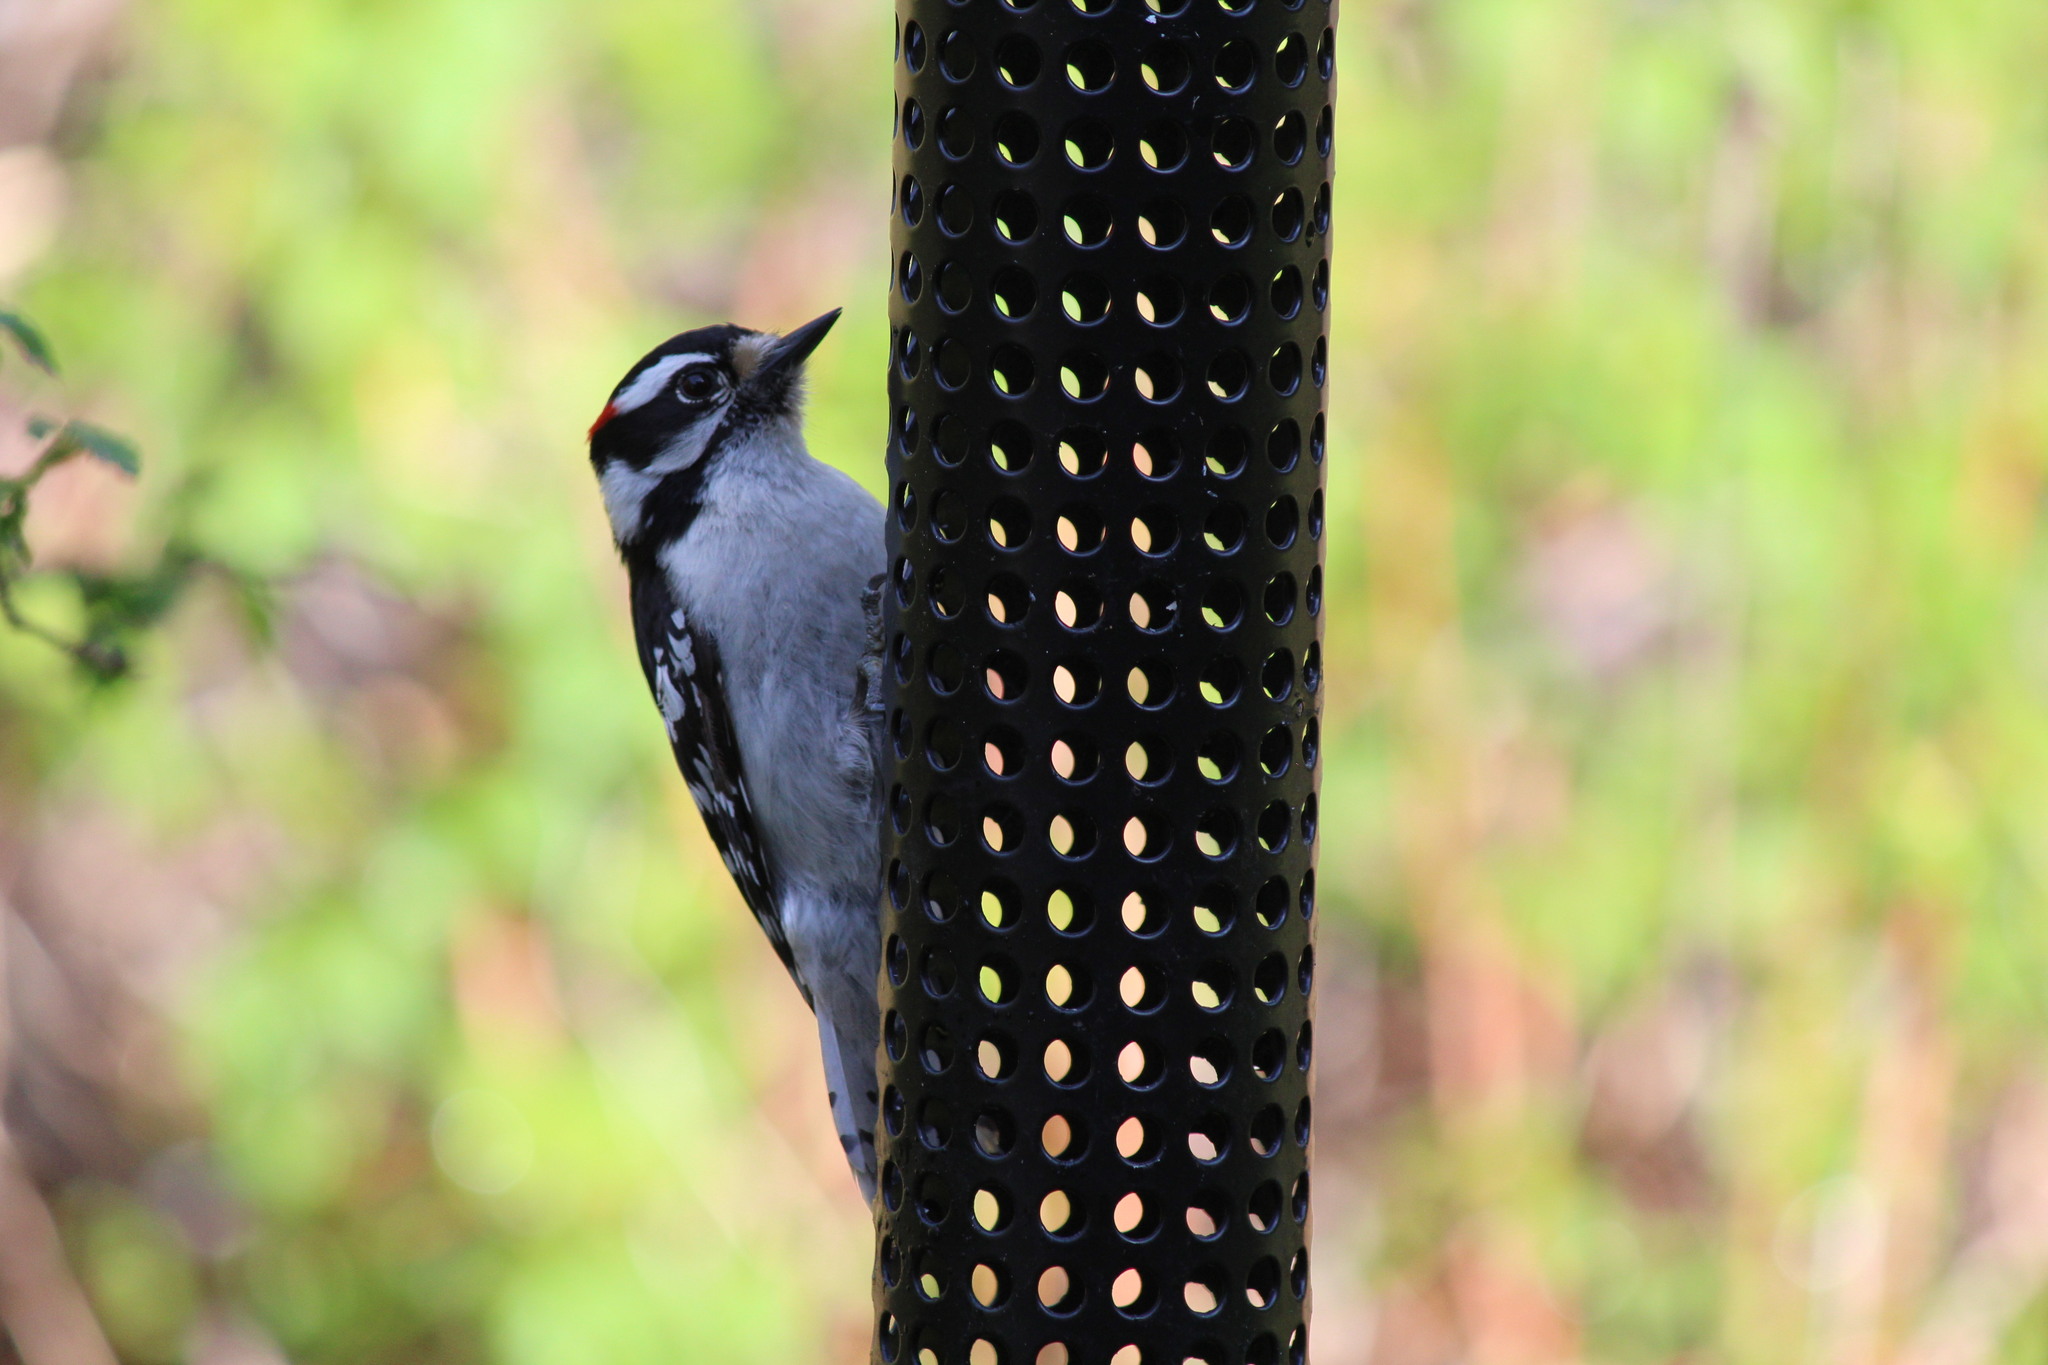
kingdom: Animalia
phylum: Chordata
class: Aves
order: Piciformes
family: Picidae
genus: Dryobates
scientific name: Dryobates pubescens
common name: Downy woodpecker
